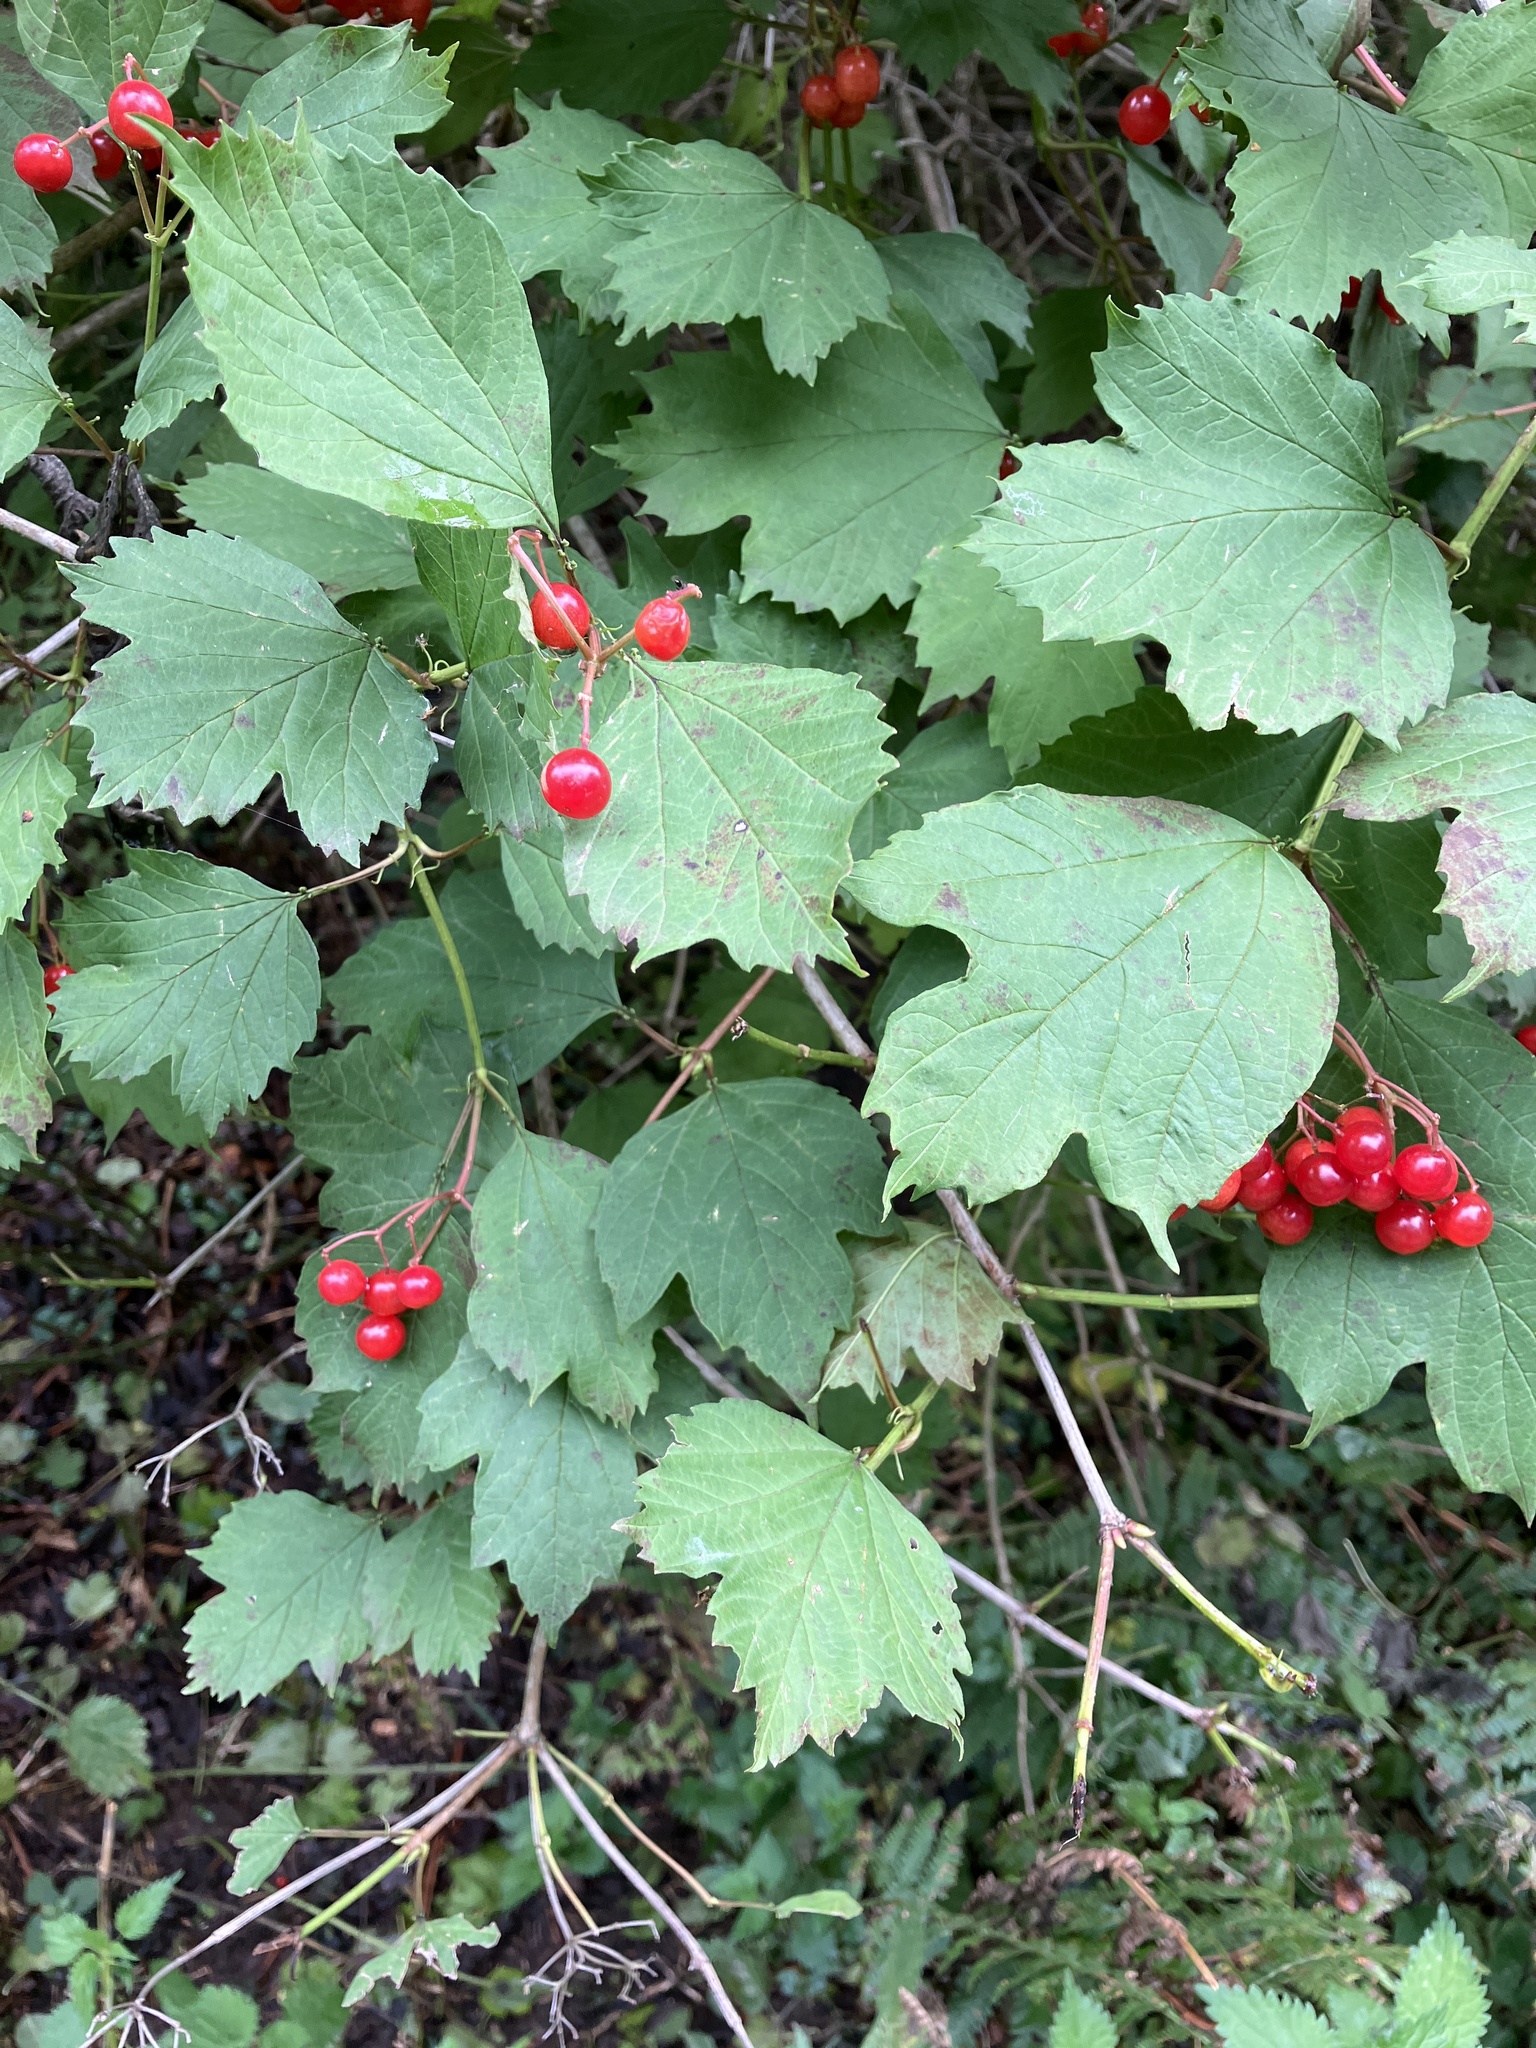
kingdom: Plantae
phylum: Tracheophyta
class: Magnoliopsida
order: Dipsacales
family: Viburnaceae
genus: Viburnum
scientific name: Viburnum opulus
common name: Guelder-rose
